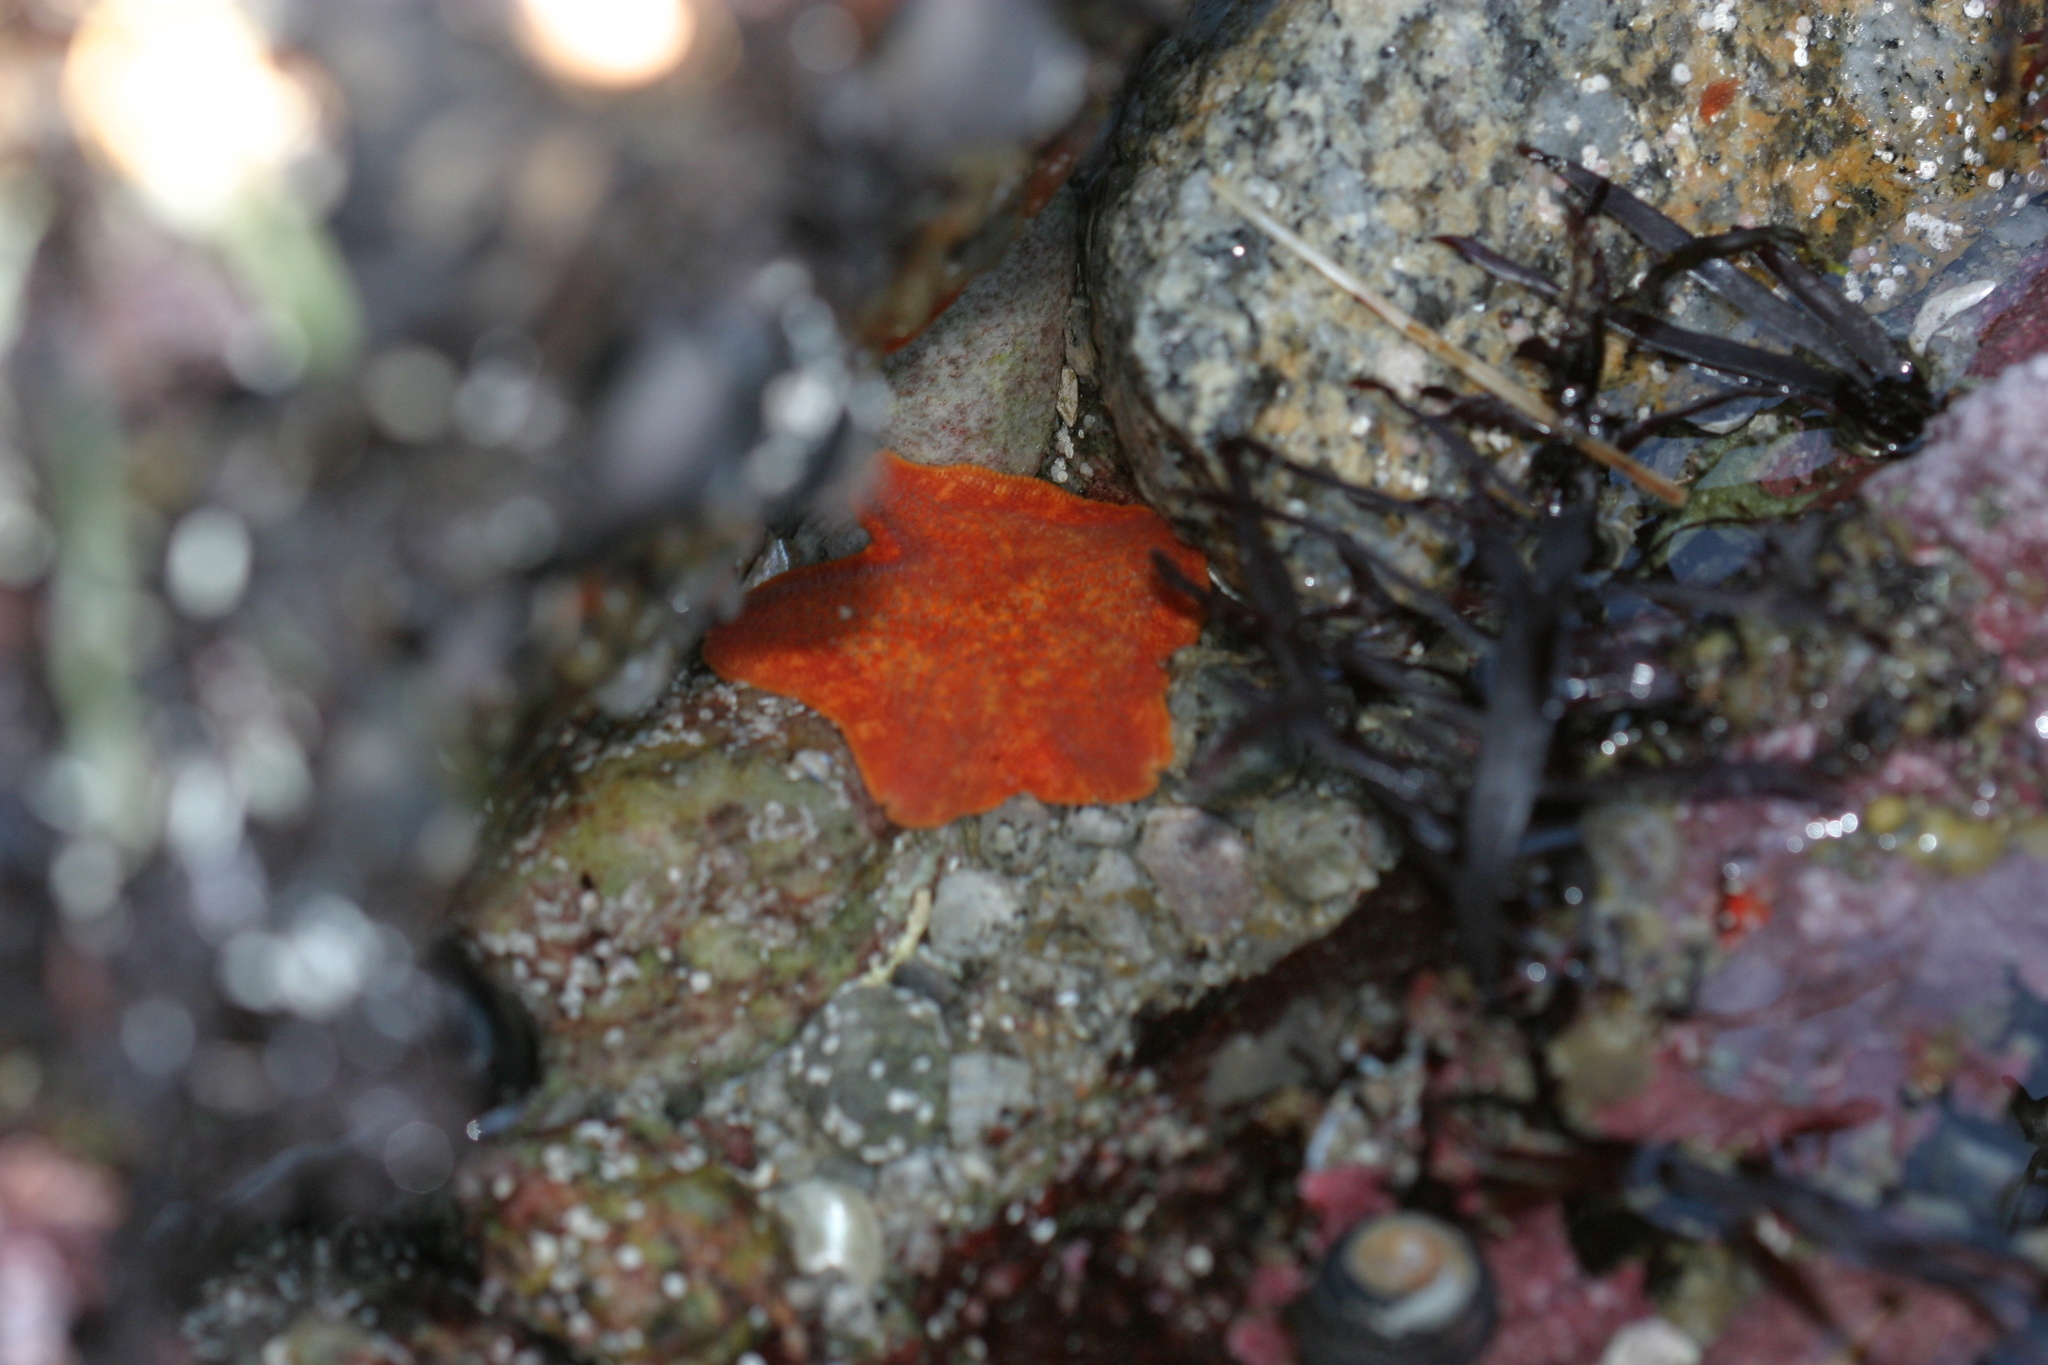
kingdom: Animalia
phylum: Echinodermata
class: Asteroidea
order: Valvatida
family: Asterinidae
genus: Patiria
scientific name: Patiria miniata
